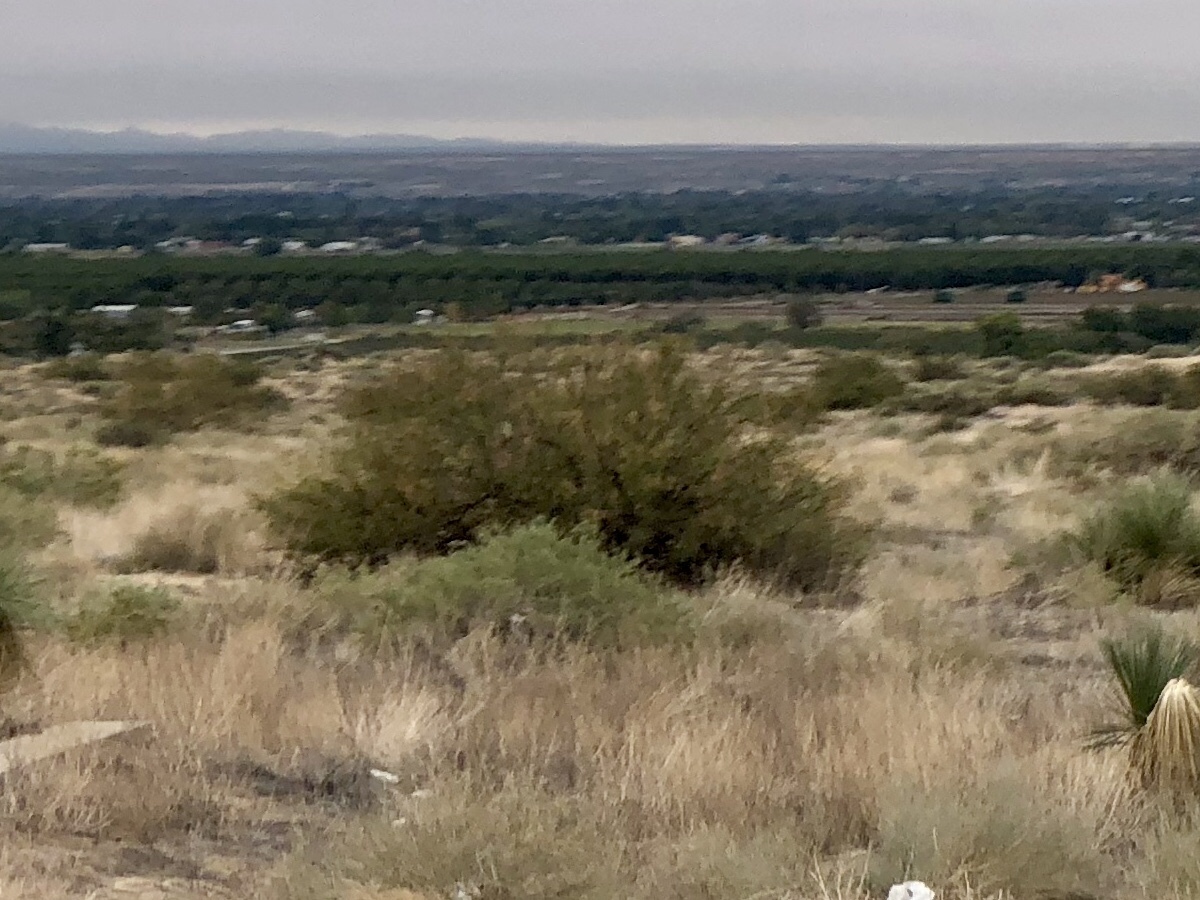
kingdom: Plantae
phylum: Tracheophyta
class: Magnoliopsida
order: Zygophyllales
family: Zygophyllaceae
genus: Larrea
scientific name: Larrea tridentata
